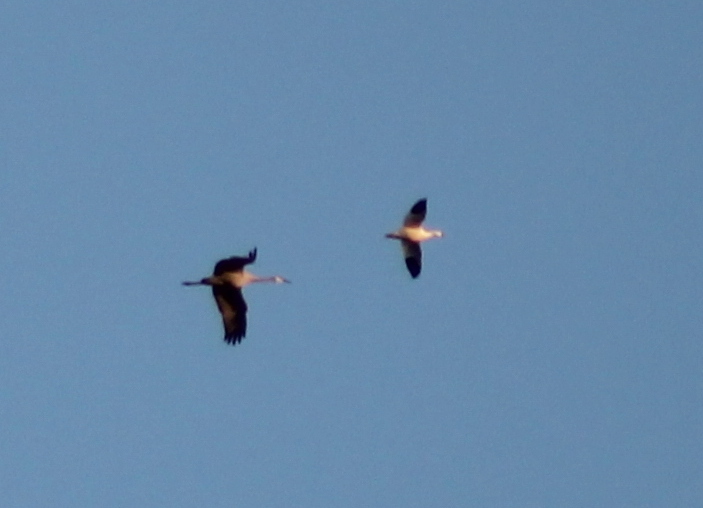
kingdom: Animalia
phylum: Chordata
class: Aves
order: Anseriformes
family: Anatidae
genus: Anser
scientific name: Anser caerulescens
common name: Snow goose
